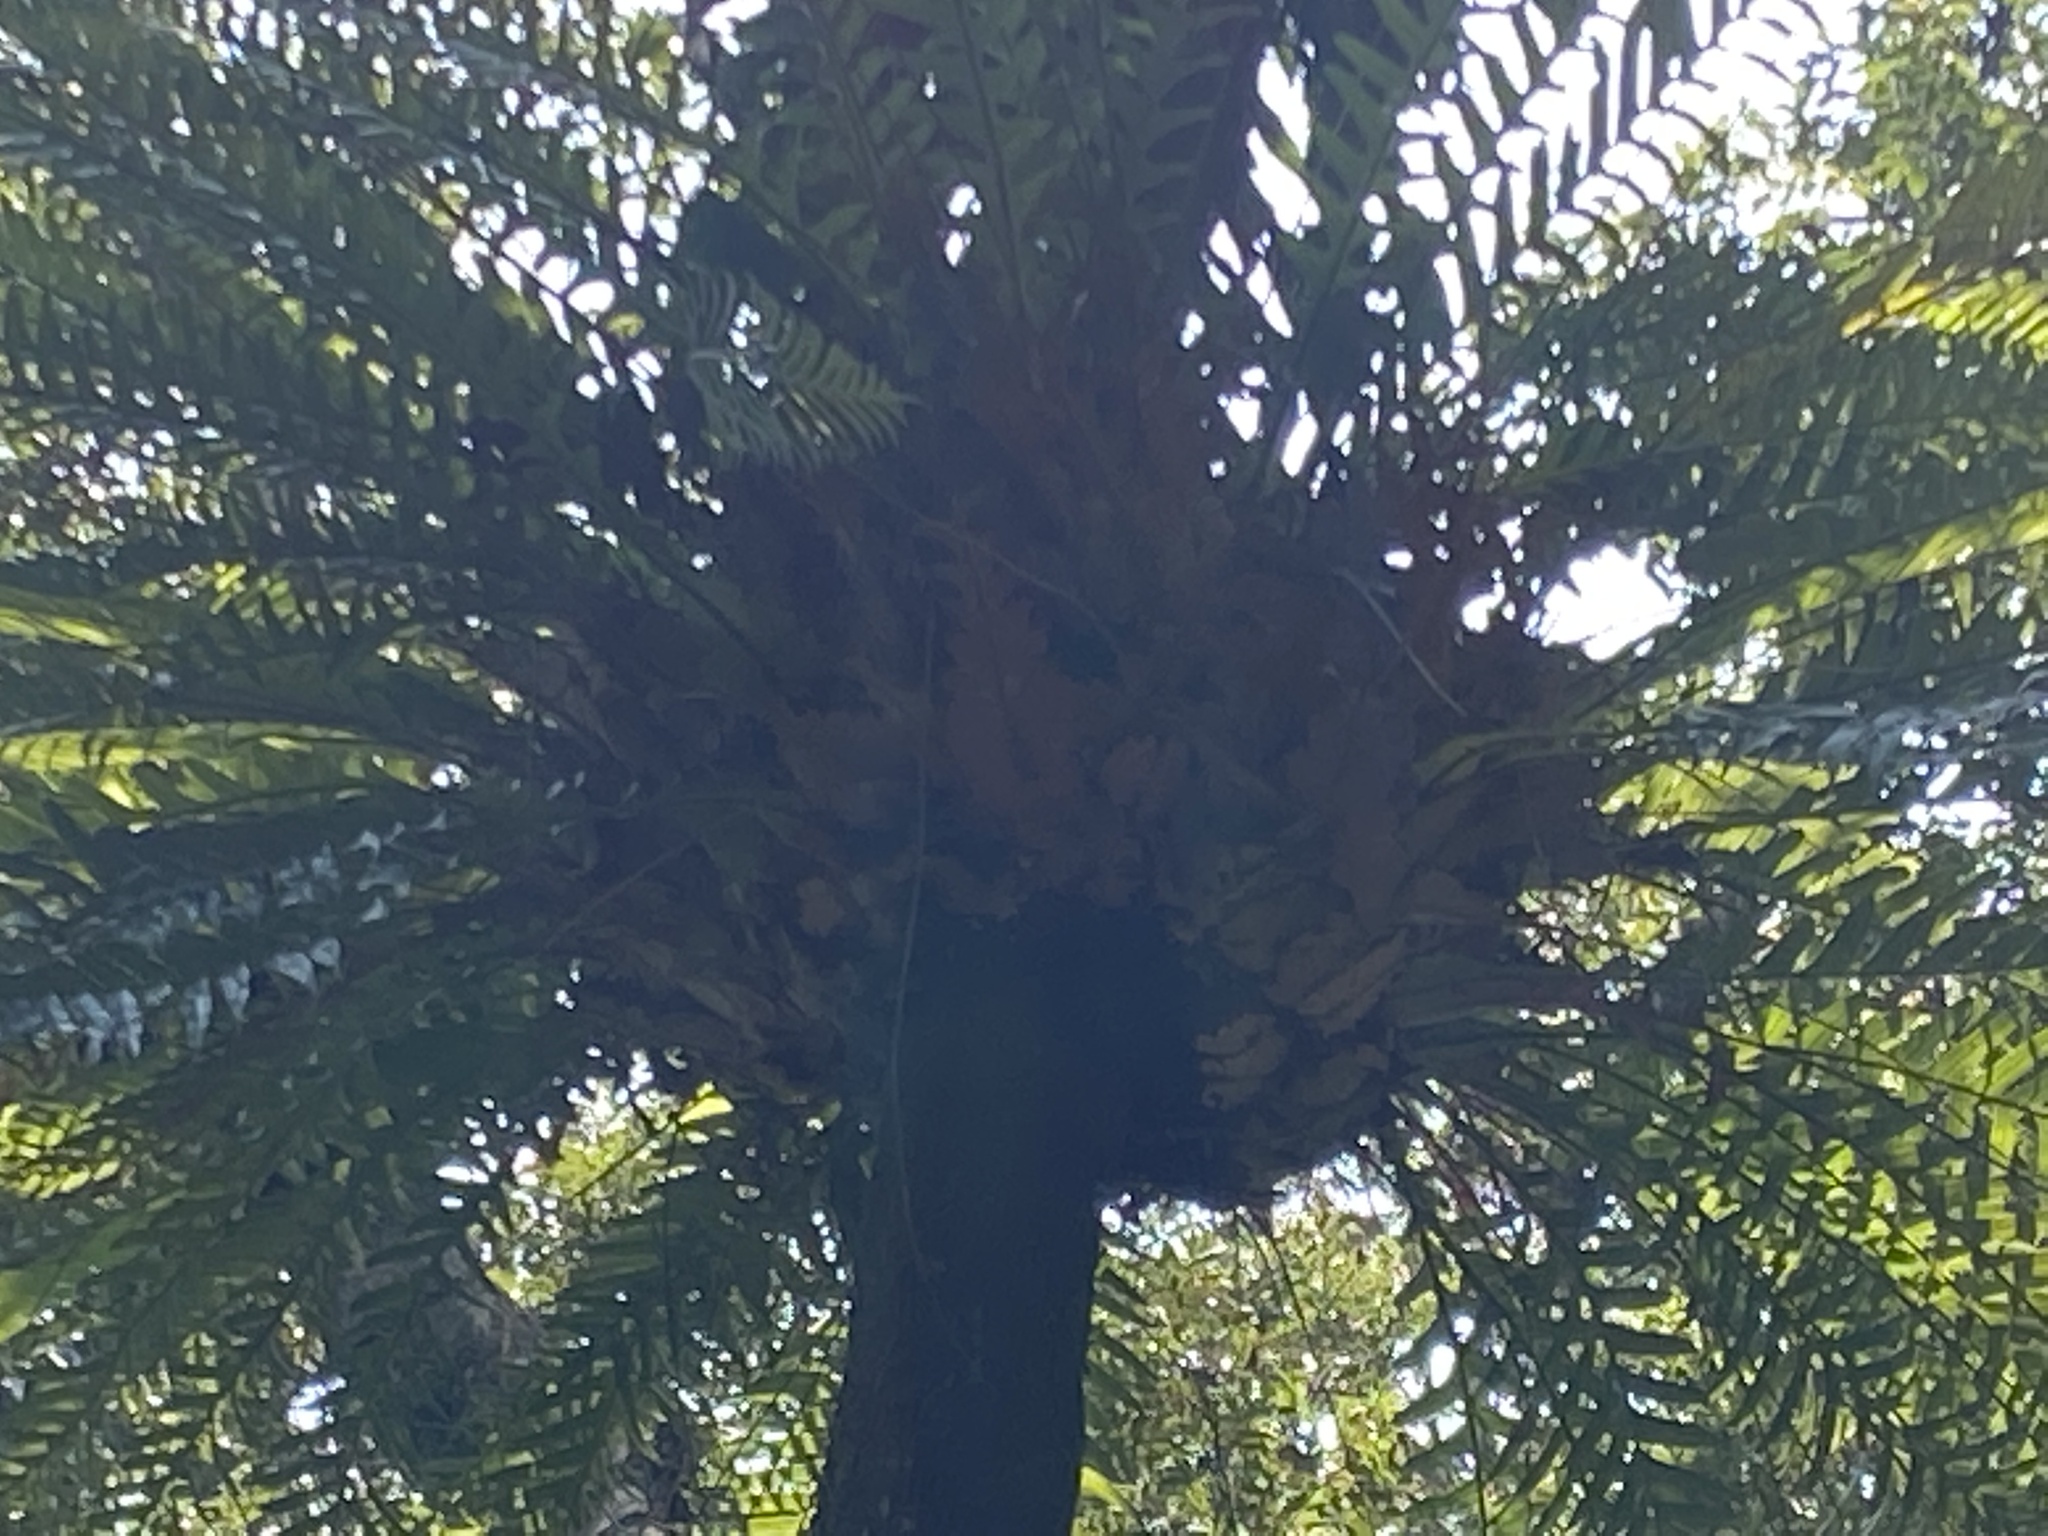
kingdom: Plantae
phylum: Tracheophyta
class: Polypodiopsida
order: Polypodiales
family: Polypodiaceae
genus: Drynaria
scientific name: Drynaria coronans
